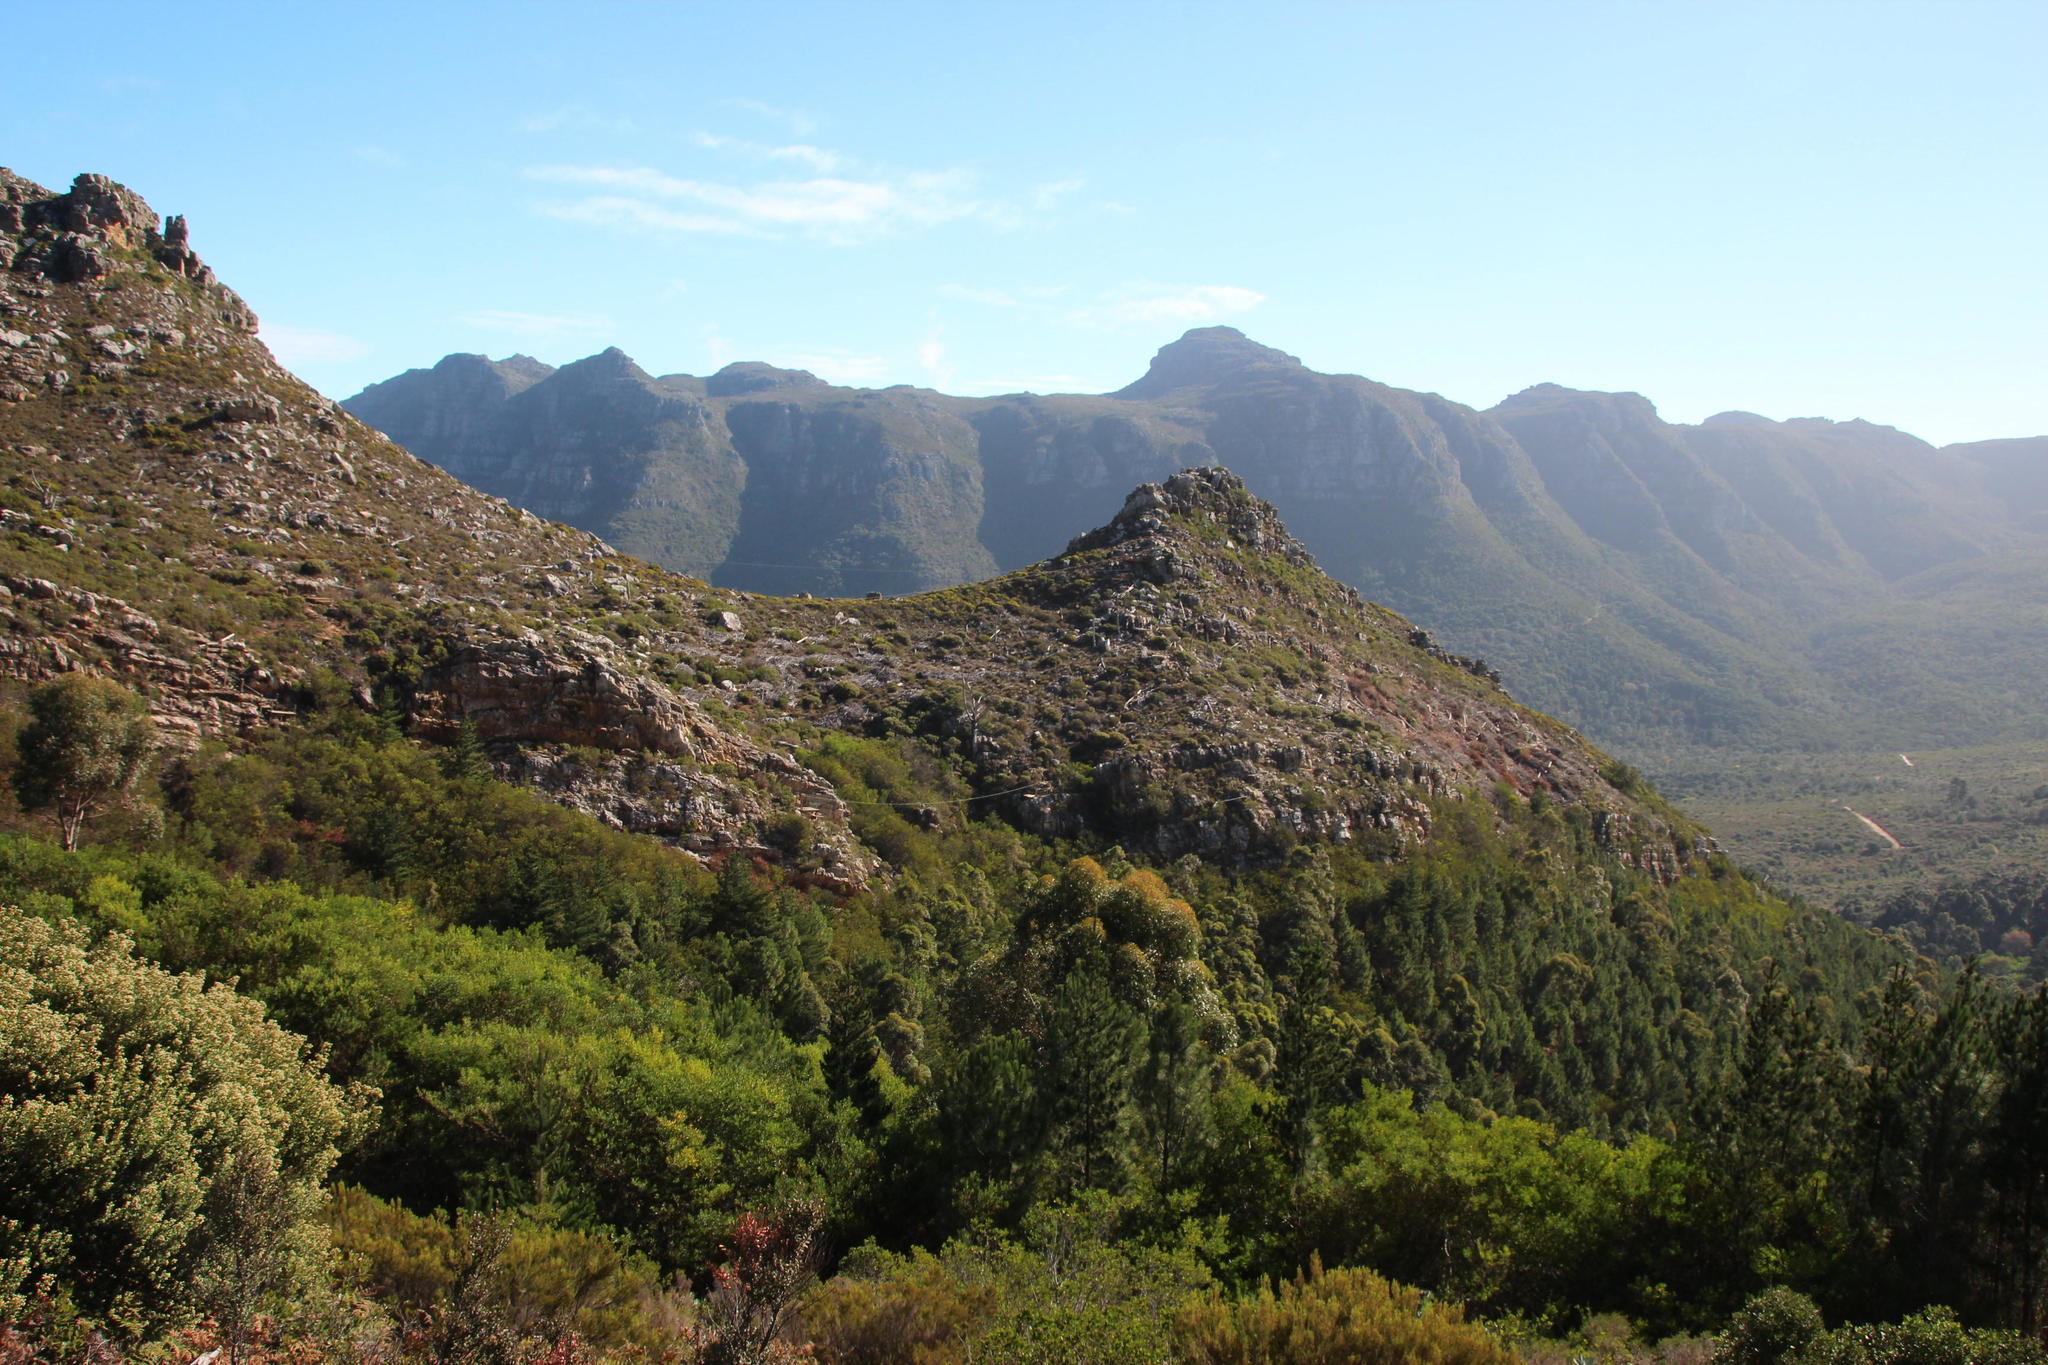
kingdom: Plantae
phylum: Tracheophyta
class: Magnoliopsida
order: Fabales
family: Fabaceae
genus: Acacia
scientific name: Acacia longifolia
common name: Sydney golden wattle
